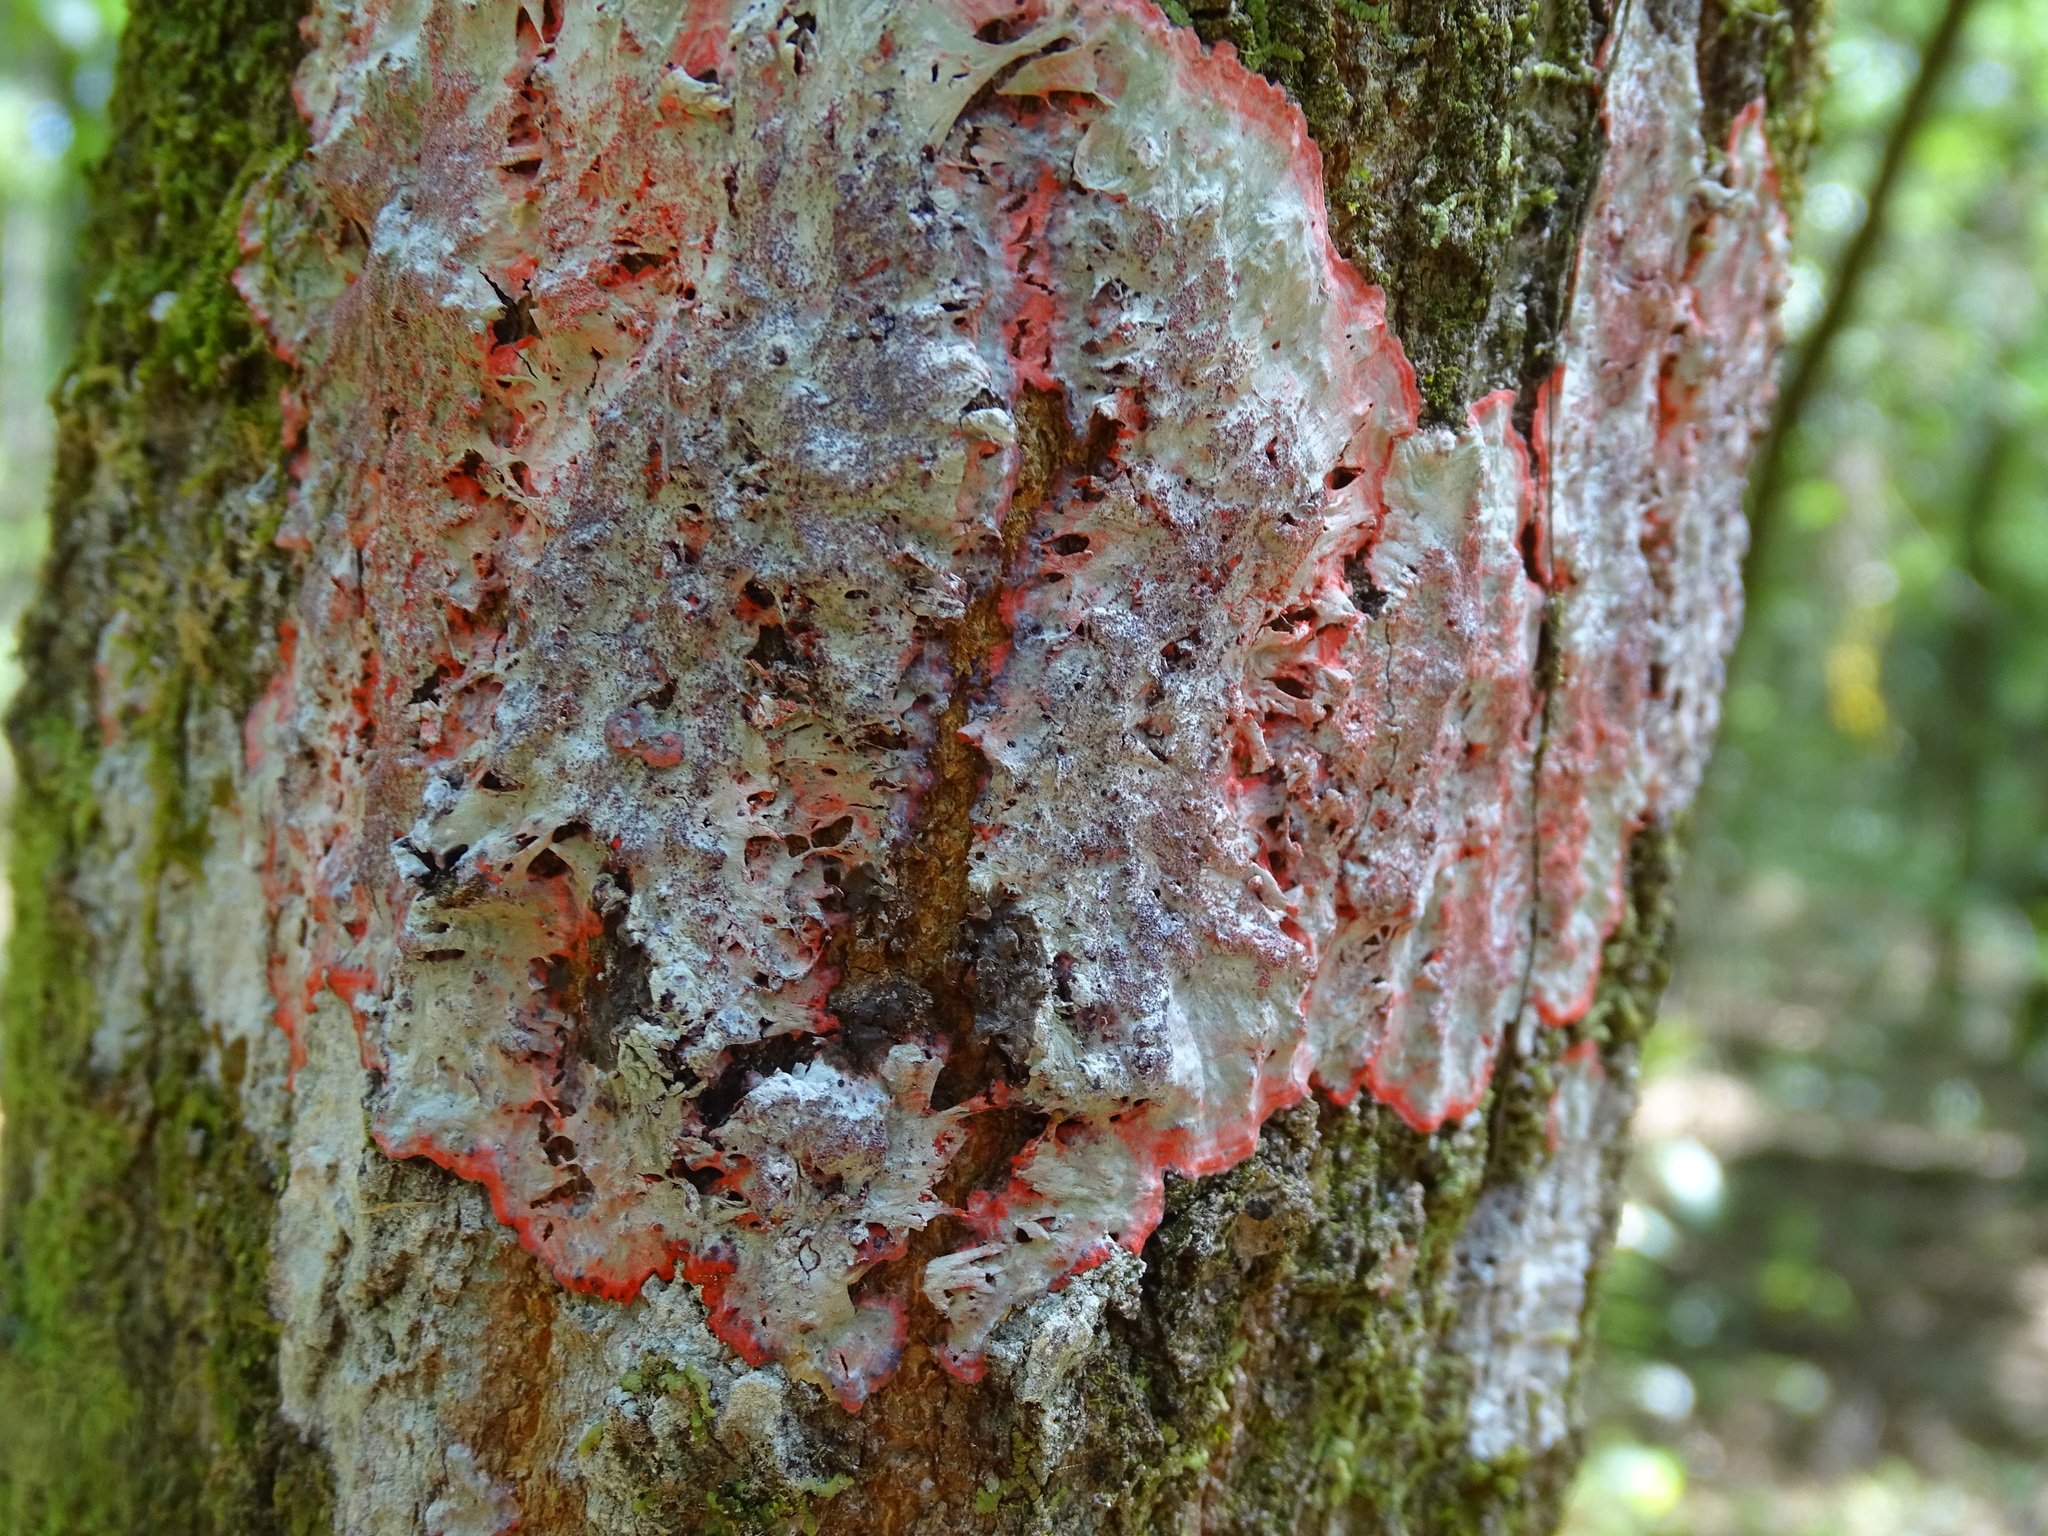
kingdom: Fungi
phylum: Ascomycota
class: Arthoniomycetes
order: Arthoniales
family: Arthoniaceae
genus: Herpothallon
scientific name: Herpothallon rubrocinctum
